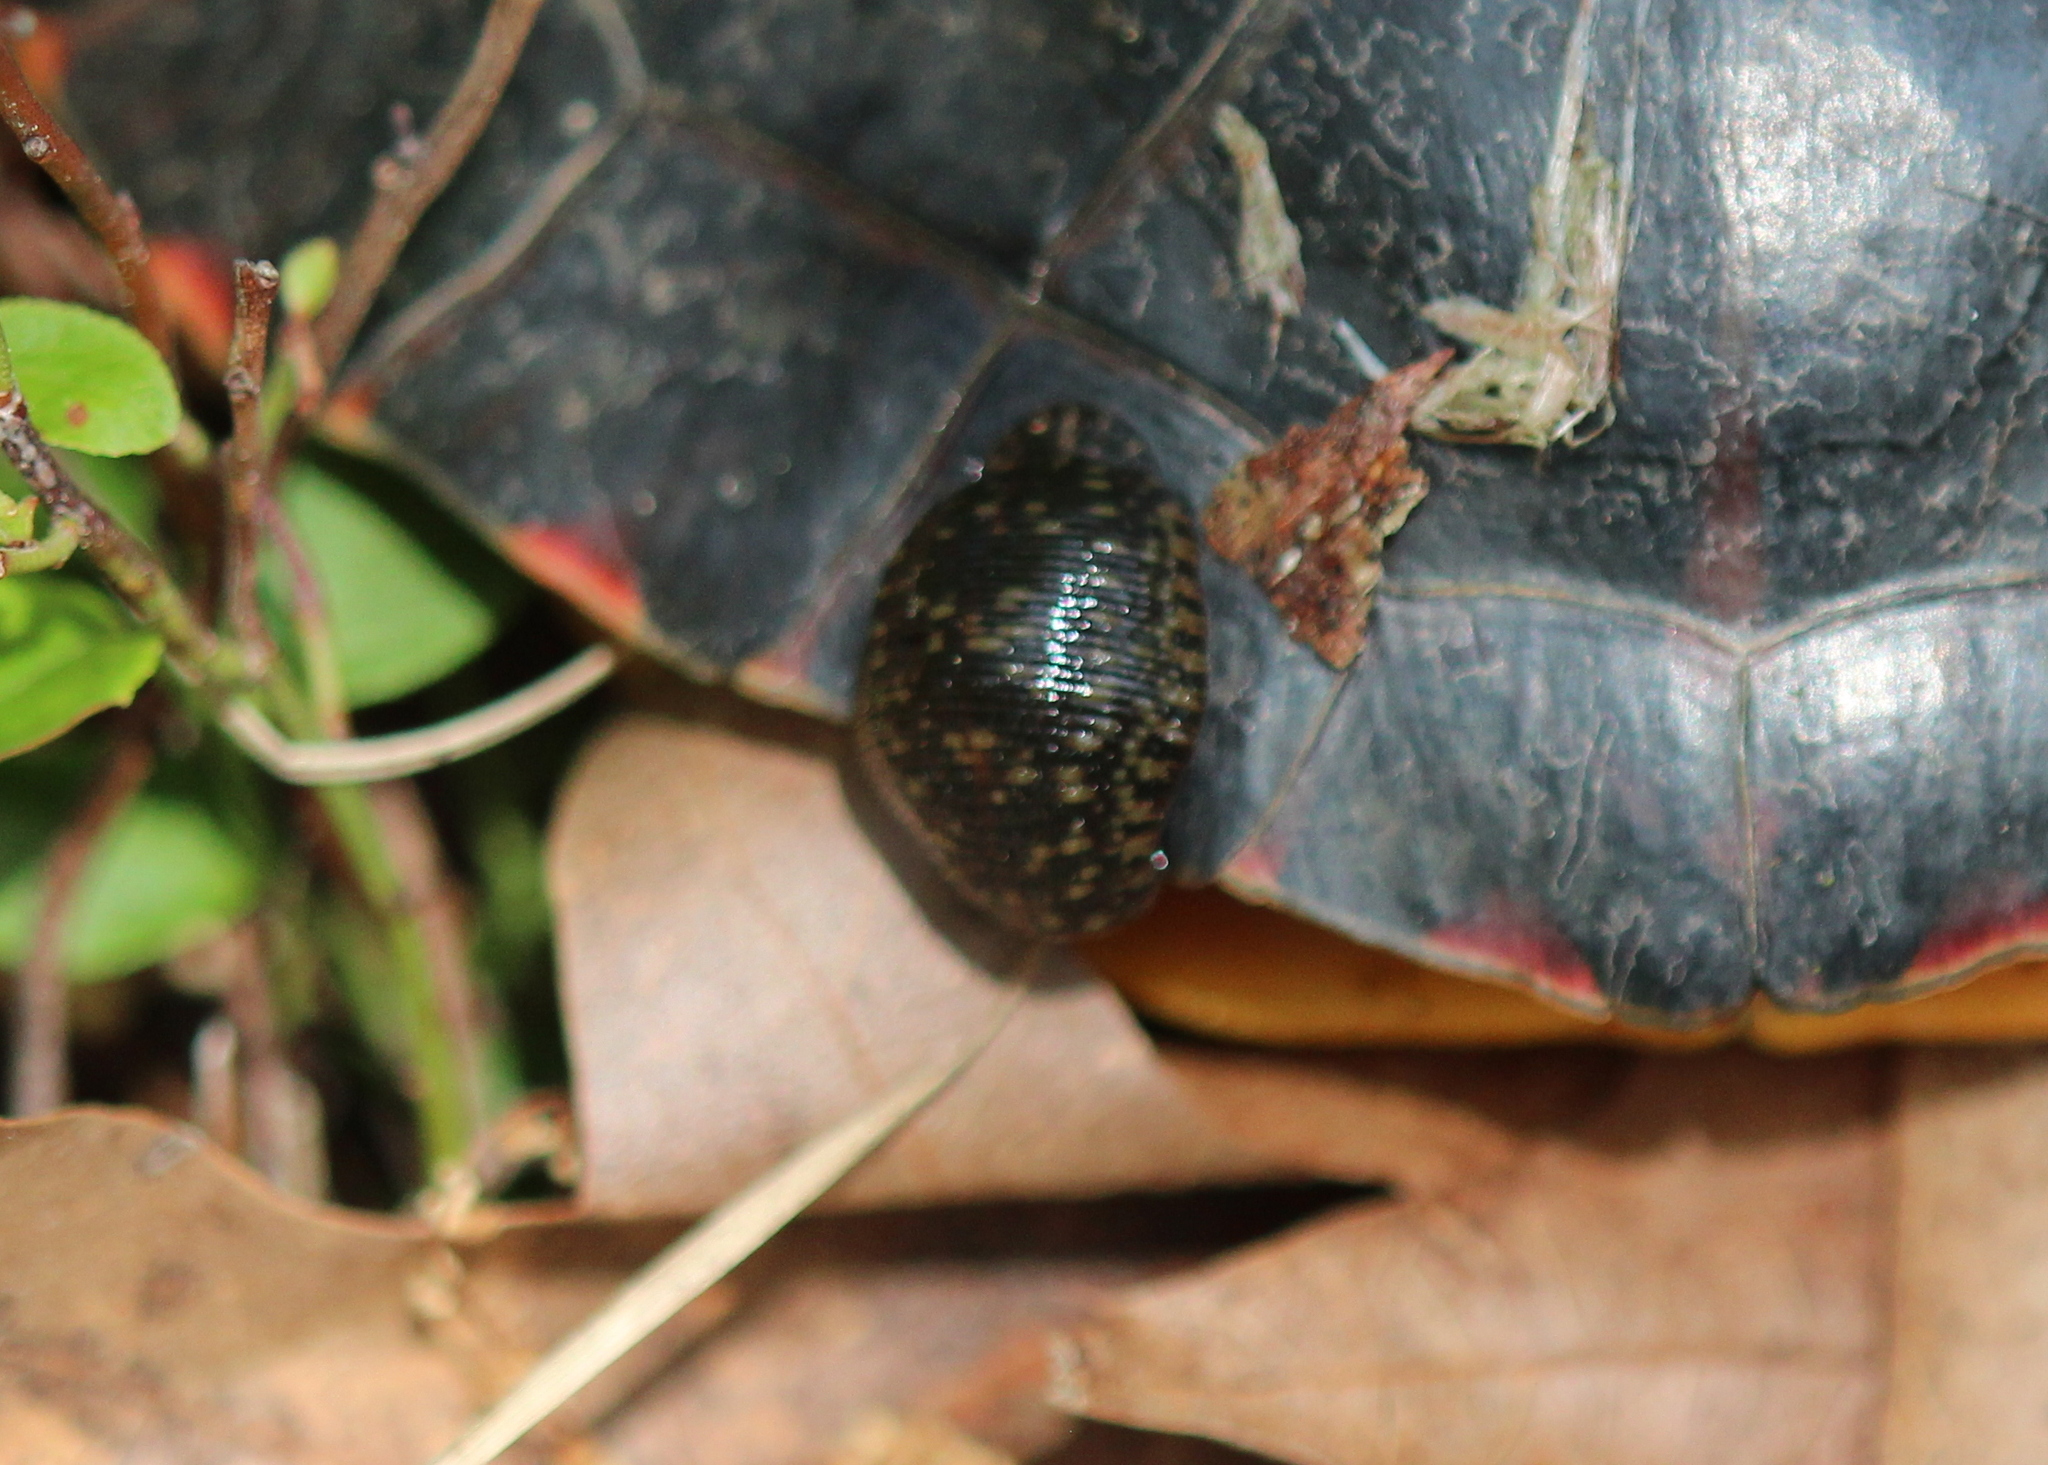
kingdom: Animalia
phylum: Annelida
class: Clitellata
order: Rhynchobdellida
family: Glossiphoniidae
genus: Placobdella
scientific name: Placobdella parasitica
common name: Smooth turtle leech
